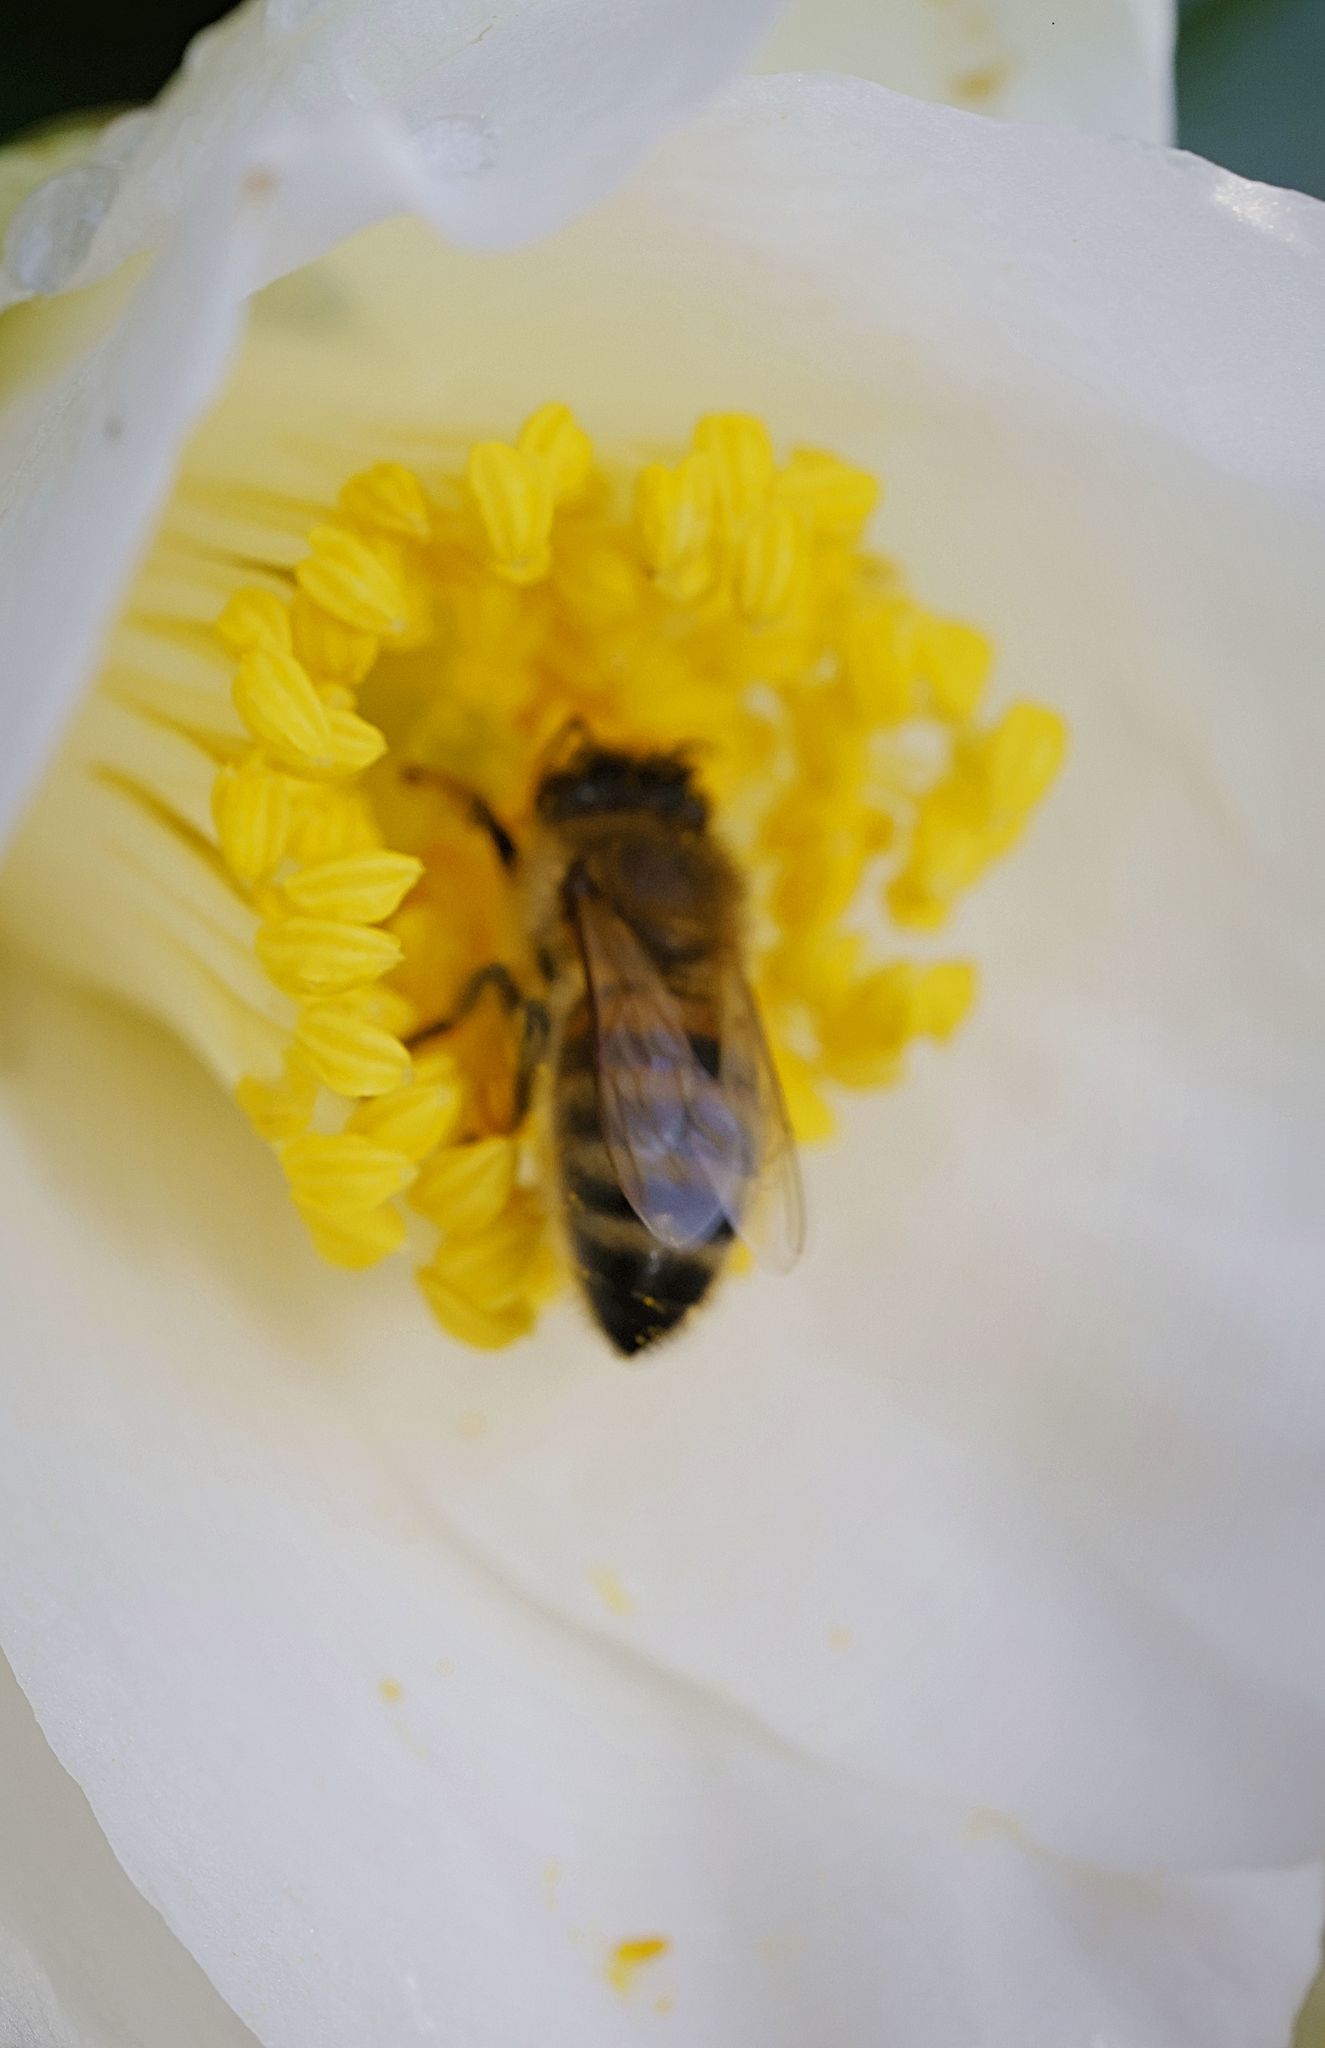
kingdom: Animalia
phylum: Arthropoda
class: Insecta
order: Hymenoptera
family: Apidae
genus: Apis
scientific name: Apis mellifera
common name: Honey bee
